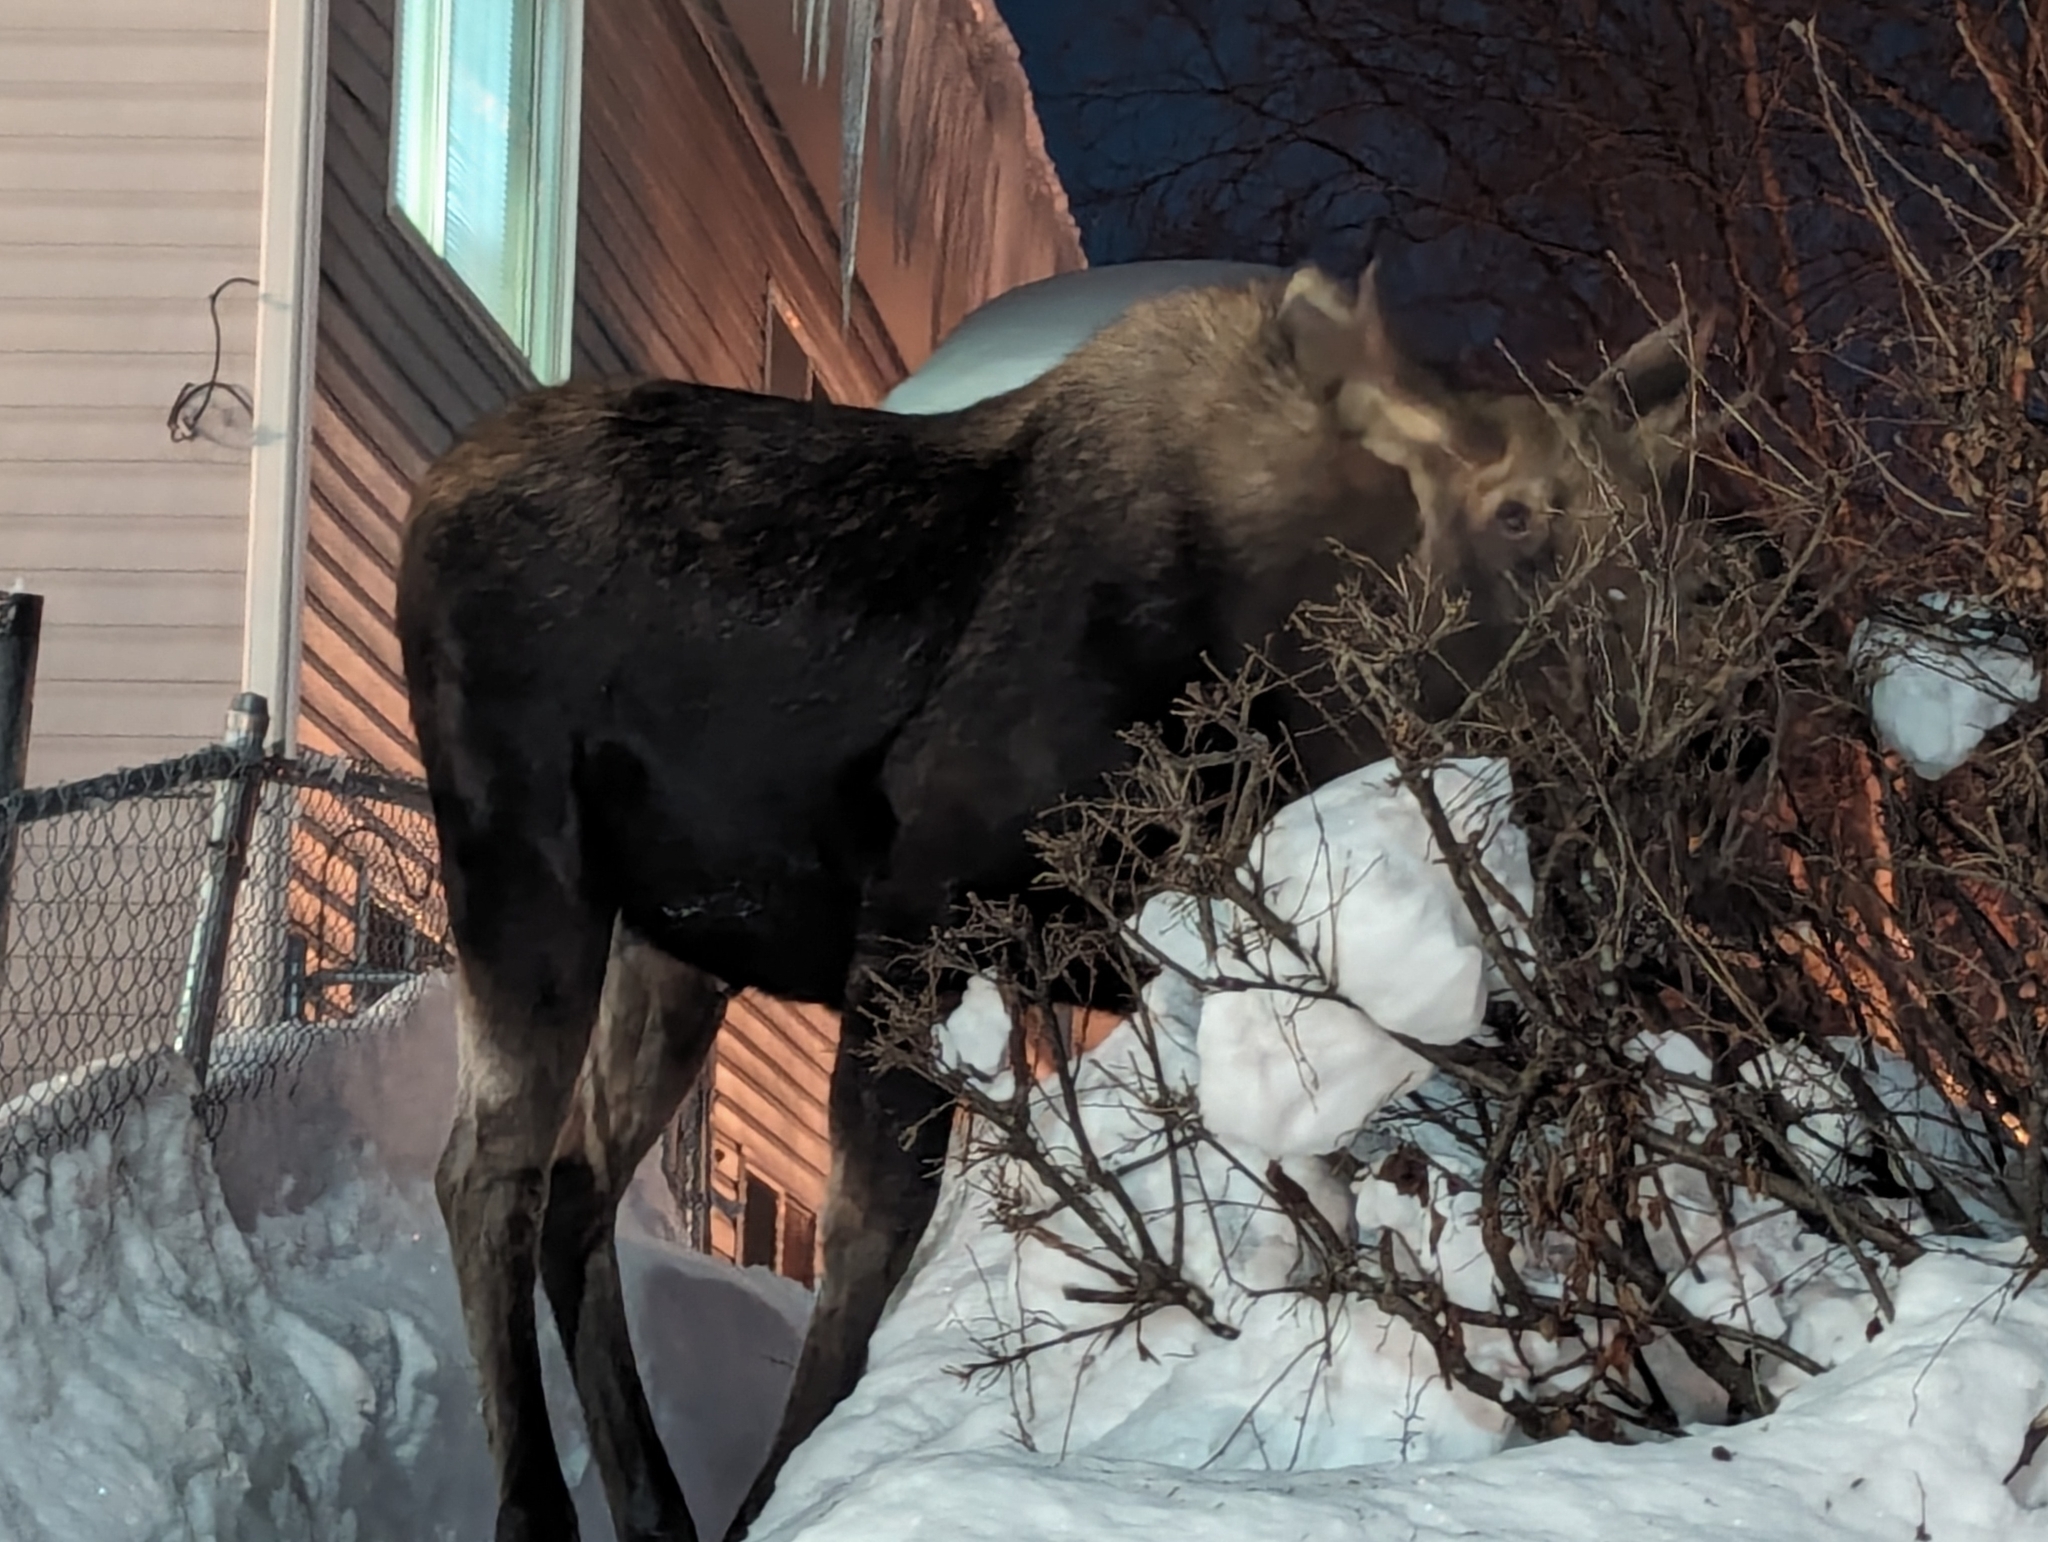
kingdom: Animalia
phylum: Chordata
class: Mammalia
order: Artiodactyla
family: Cervidae
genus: Alces
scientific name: Alces alces
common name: Moose
